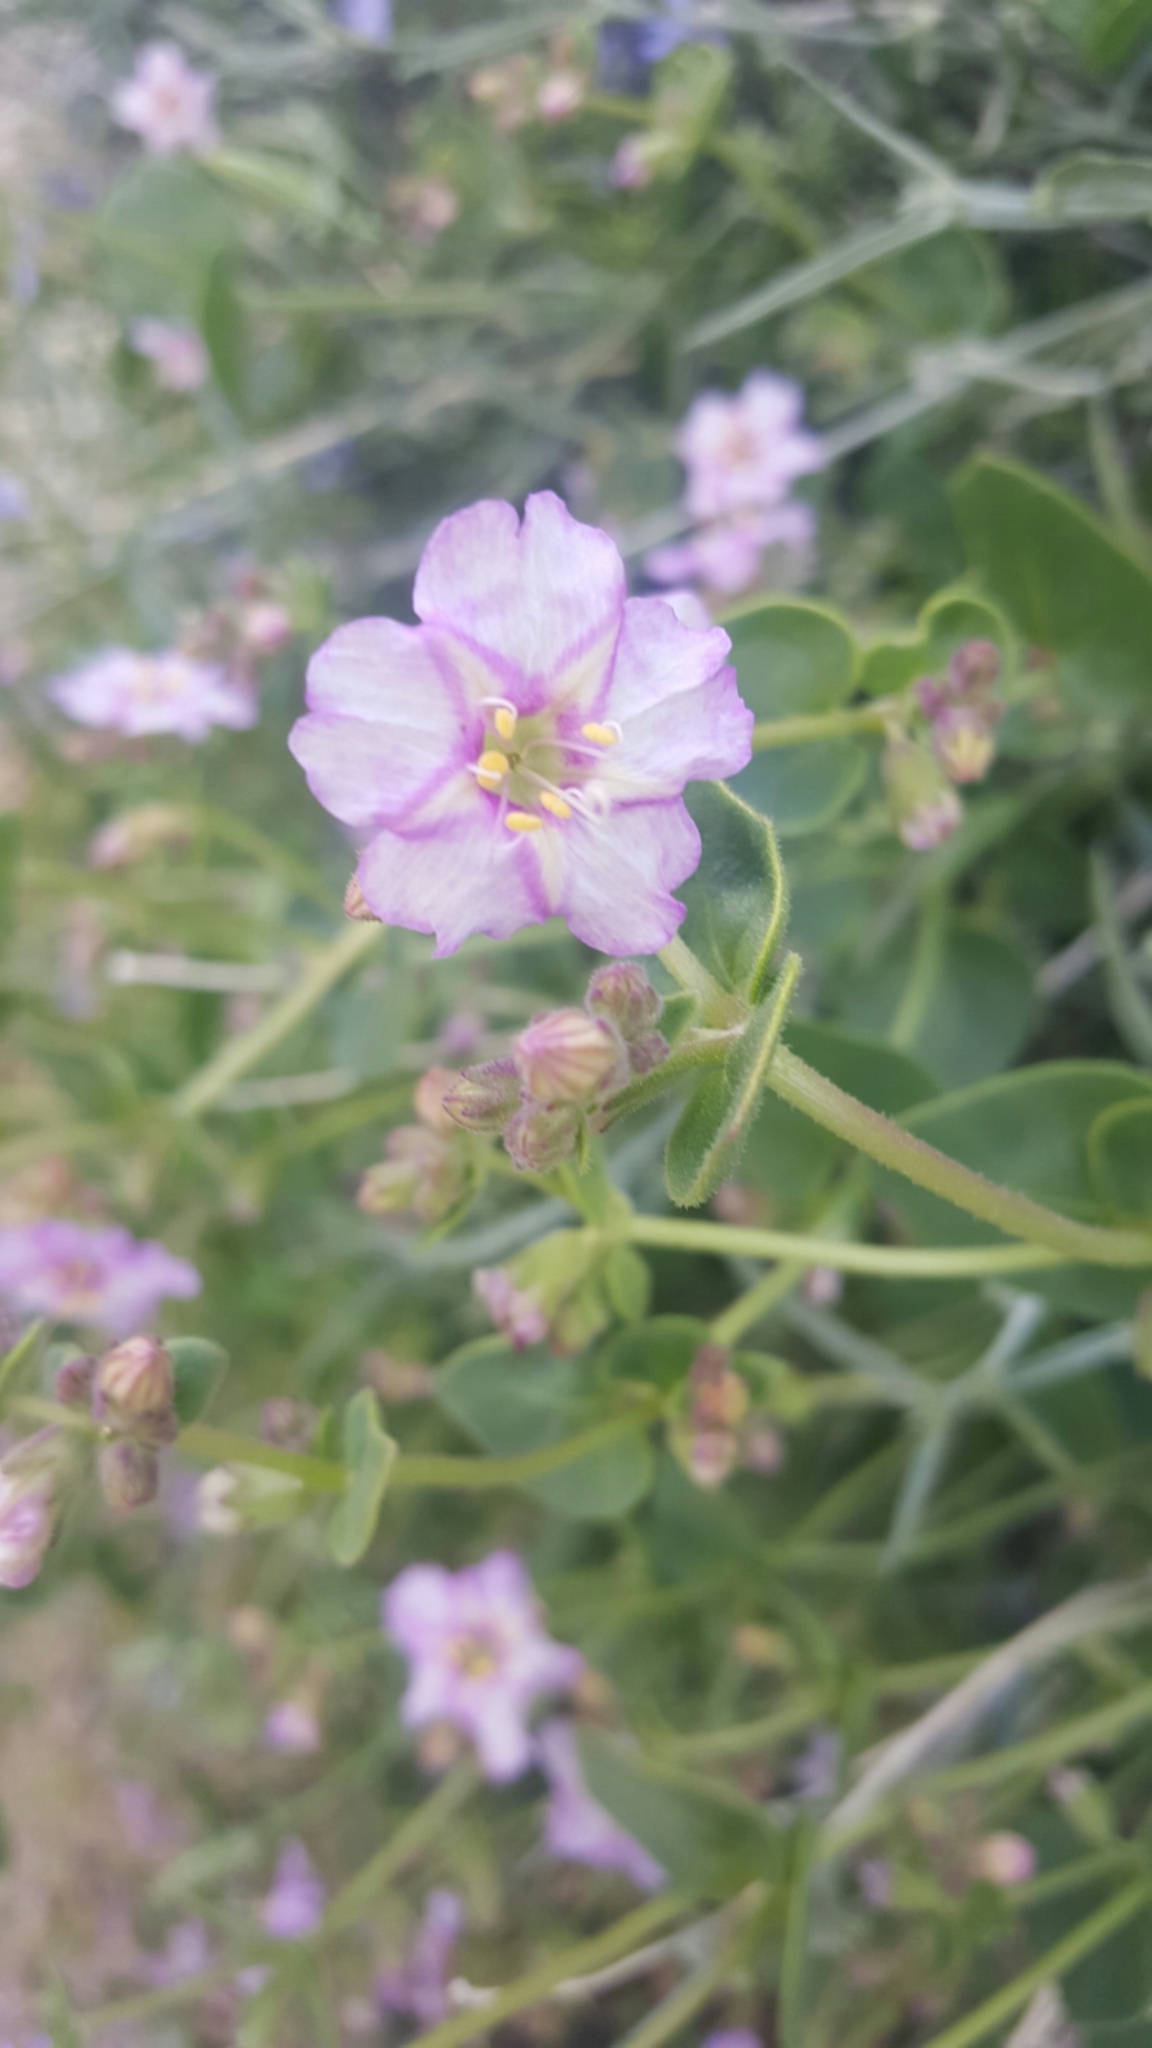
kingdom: Plantae
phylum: Tracheophyta
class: Magnoliopsida
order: Caryophyllales
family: Nyctaginaceae
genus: Mirabilis
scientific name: Mirabilis laevis
